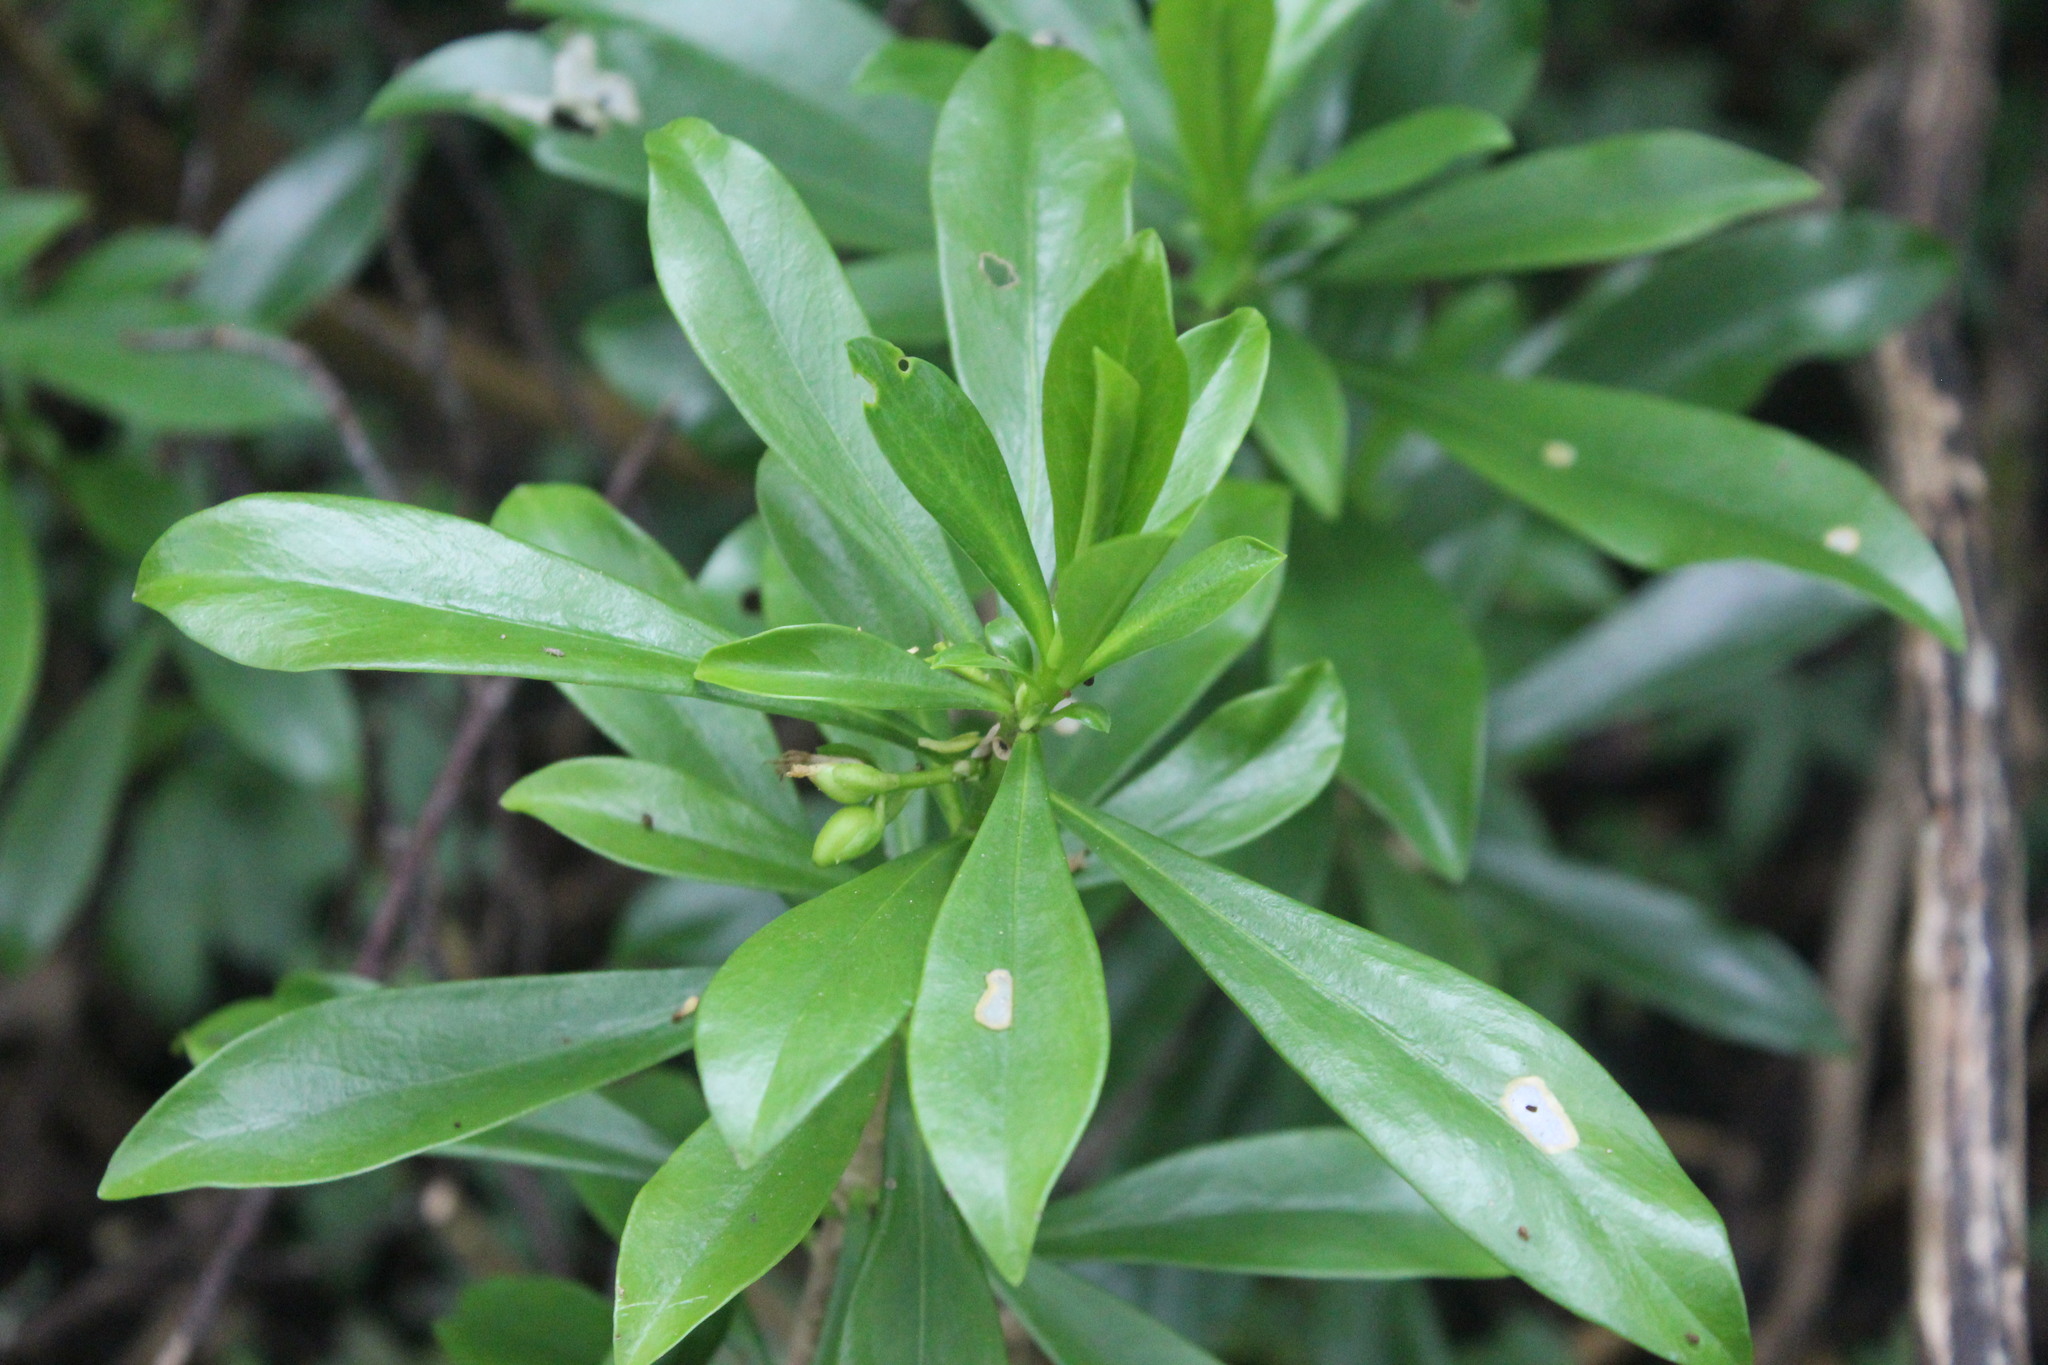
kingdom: Plantae
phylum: Tracheophyta
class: Magnoliopsida
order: Malvales
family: Thymelaeaceae
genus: Daphne
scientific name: Daphne laureola
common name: Spurge-laurel
